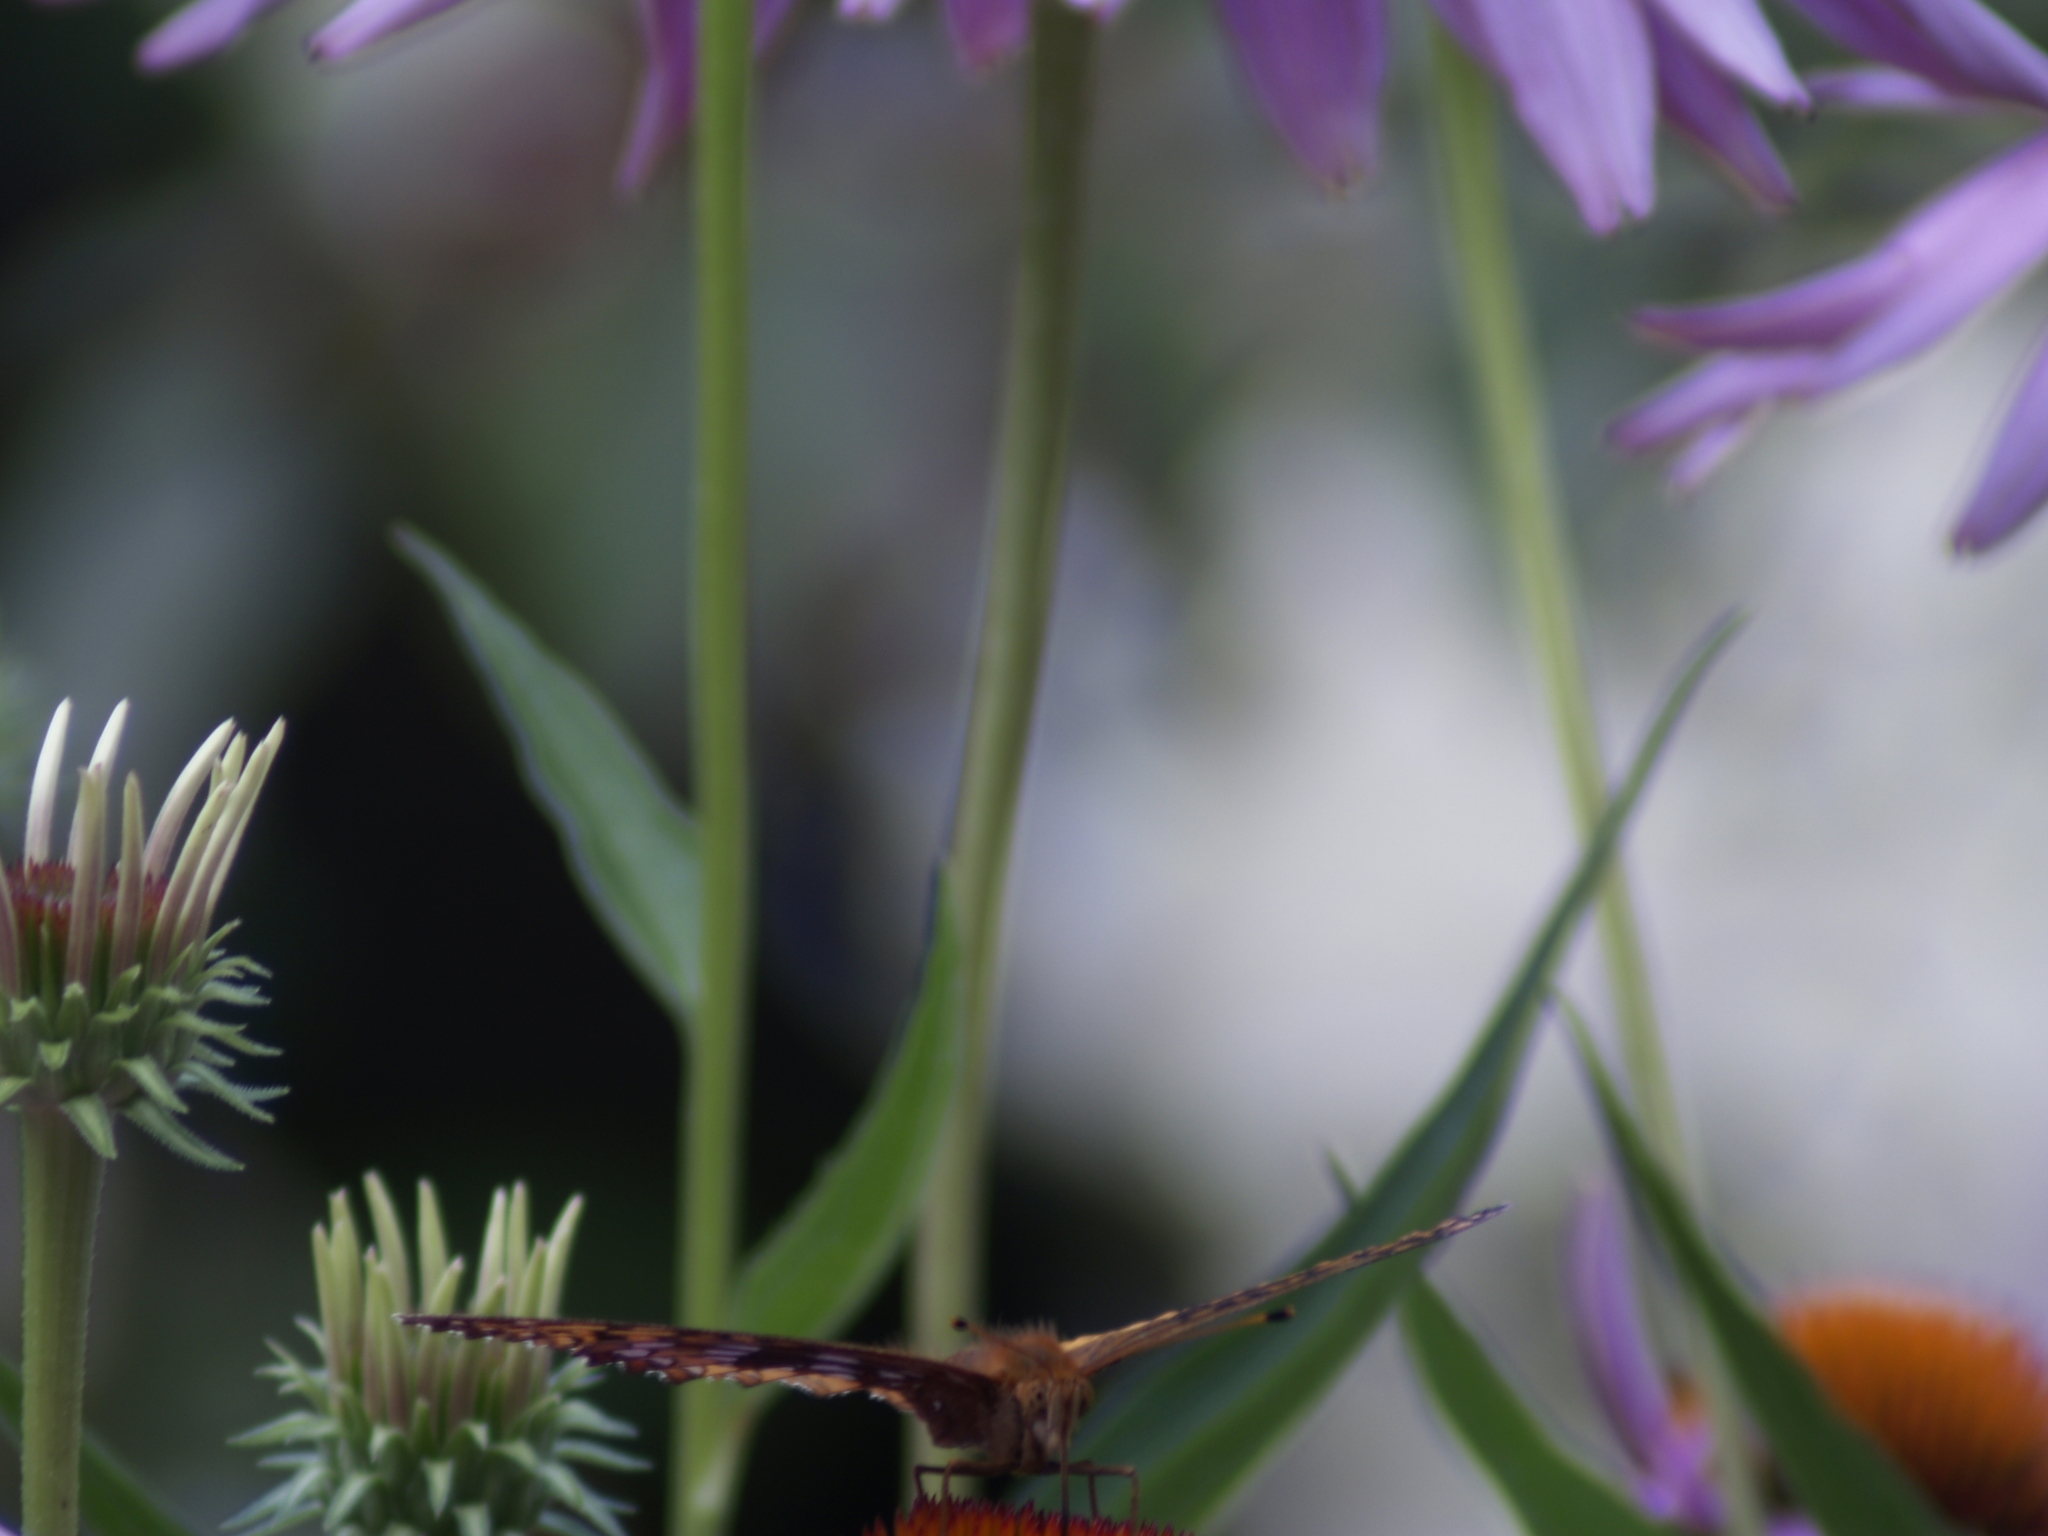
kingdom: Animalia
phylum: Arthropoda
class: Insecta
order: Lepidoptera
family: Nymphalidae
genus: Speyeria
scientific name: Speyeria cybele
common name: Great spangled fritillary
